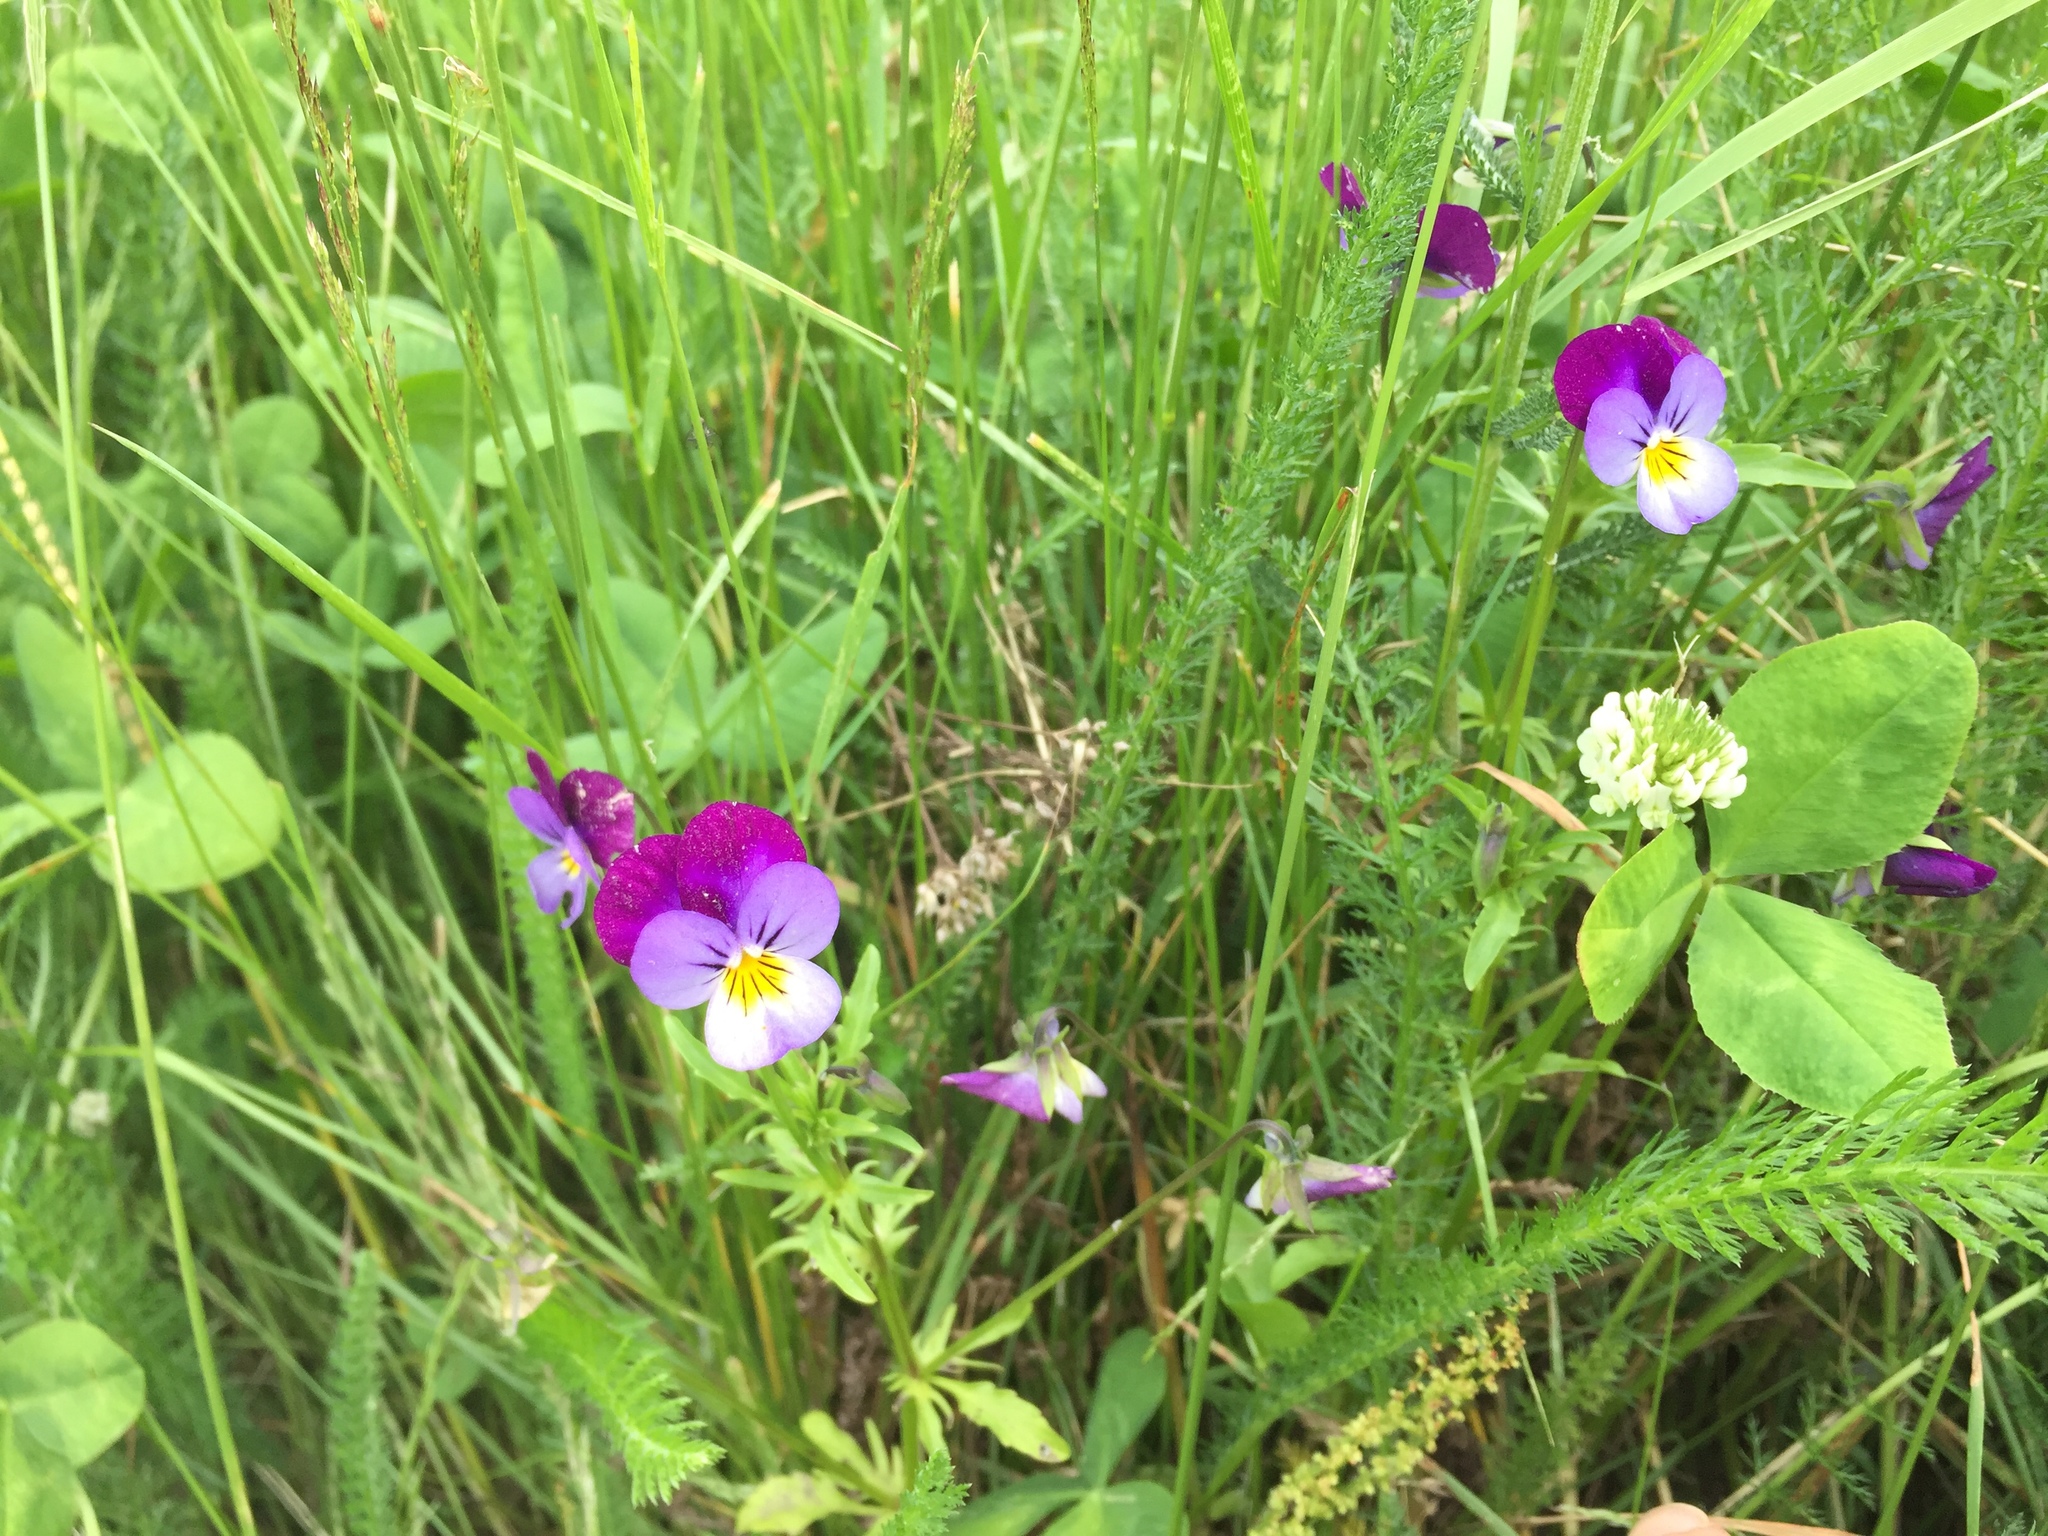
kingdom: Plantae
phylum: Tracheophyta
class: Magnoliopsida
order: Malpighiales
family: Violaceae
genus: Viola
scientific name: Viola williamsii
